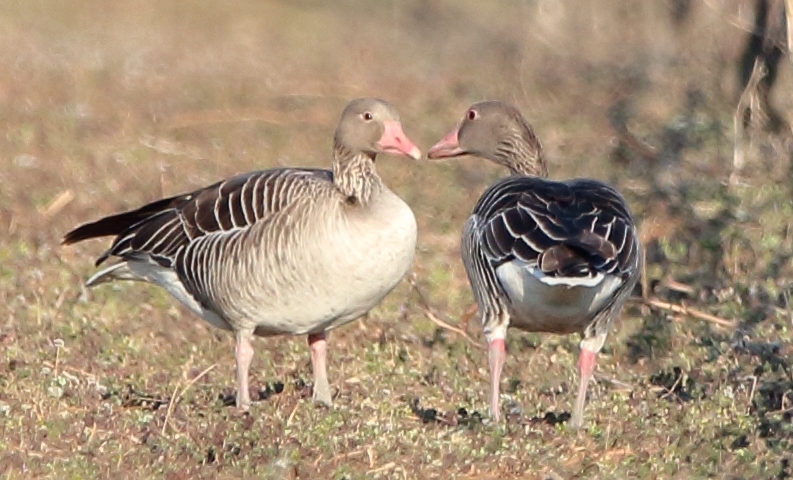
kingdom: Animalia
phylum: Chordata
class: Aves
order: Anseriformes
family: Anatidae
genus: Anser
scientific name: Anser anser
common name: Greylag goose
